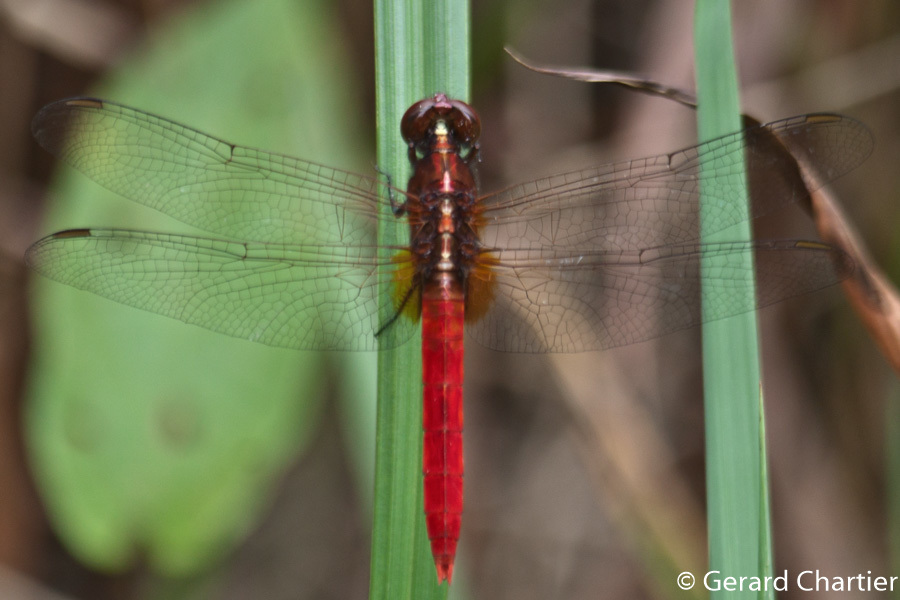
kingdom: Animalia
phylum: Arthropoda
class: Insecta
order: Odonata
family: Libellulidae
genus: Rhodothemis
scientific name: Rhodothemis rufa
